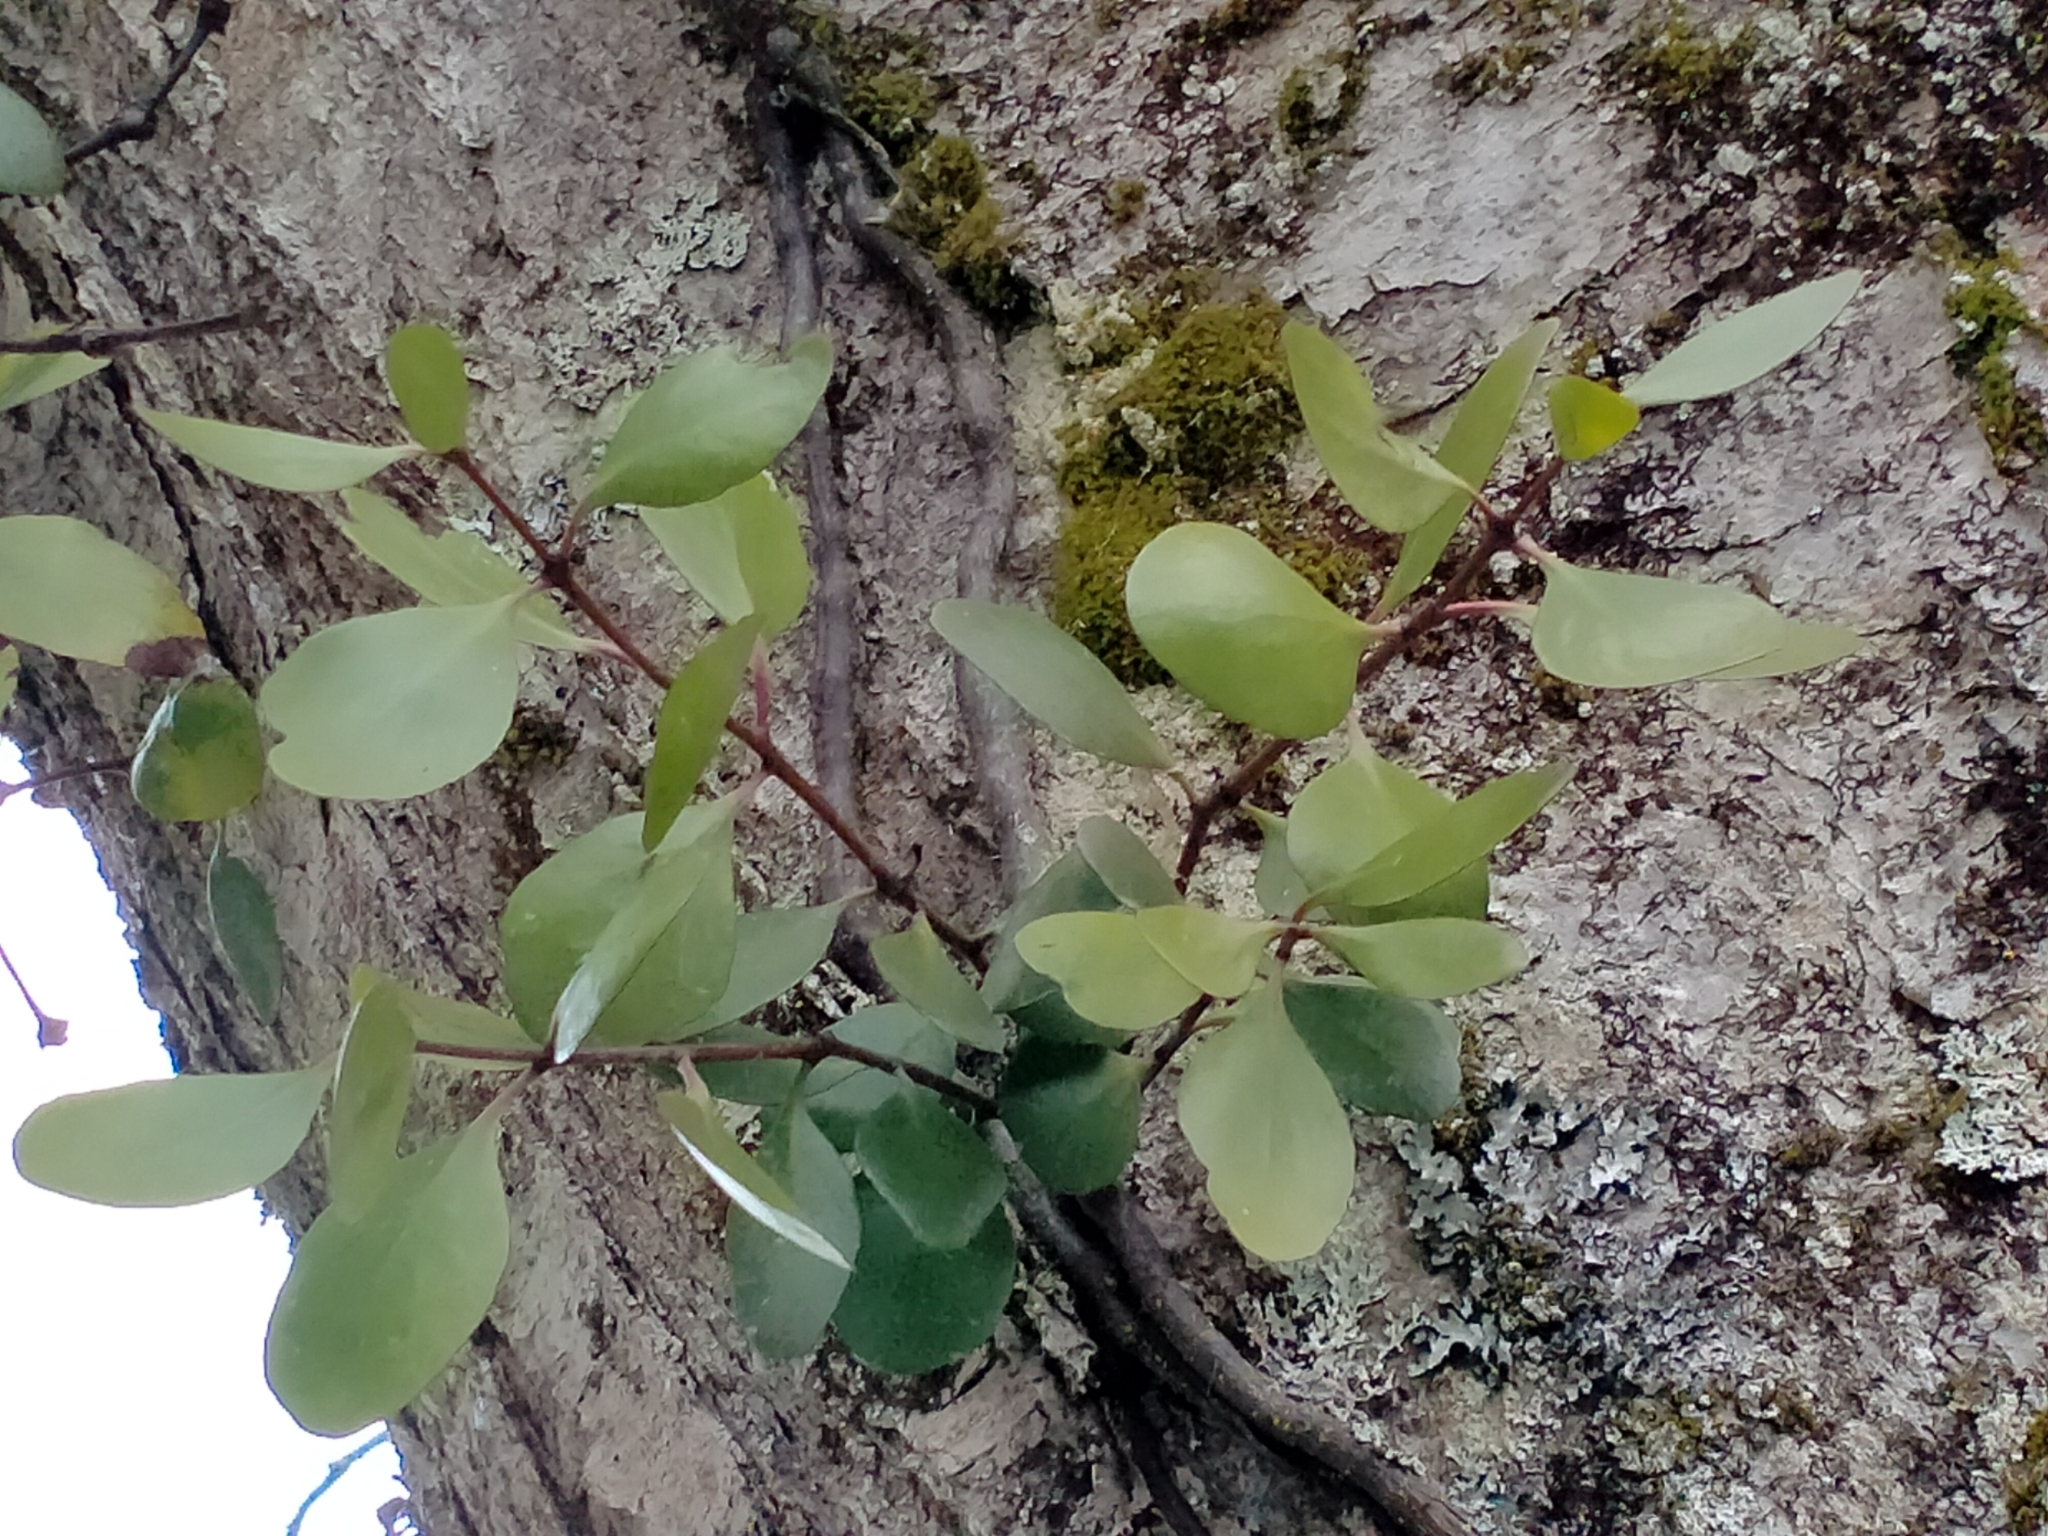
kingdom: Plantae
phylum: Tracheophyta
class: Magnoliopsida
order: Santalales
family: Loranthaceae
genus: Peraxilla
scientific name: Peraxilla colensoi
